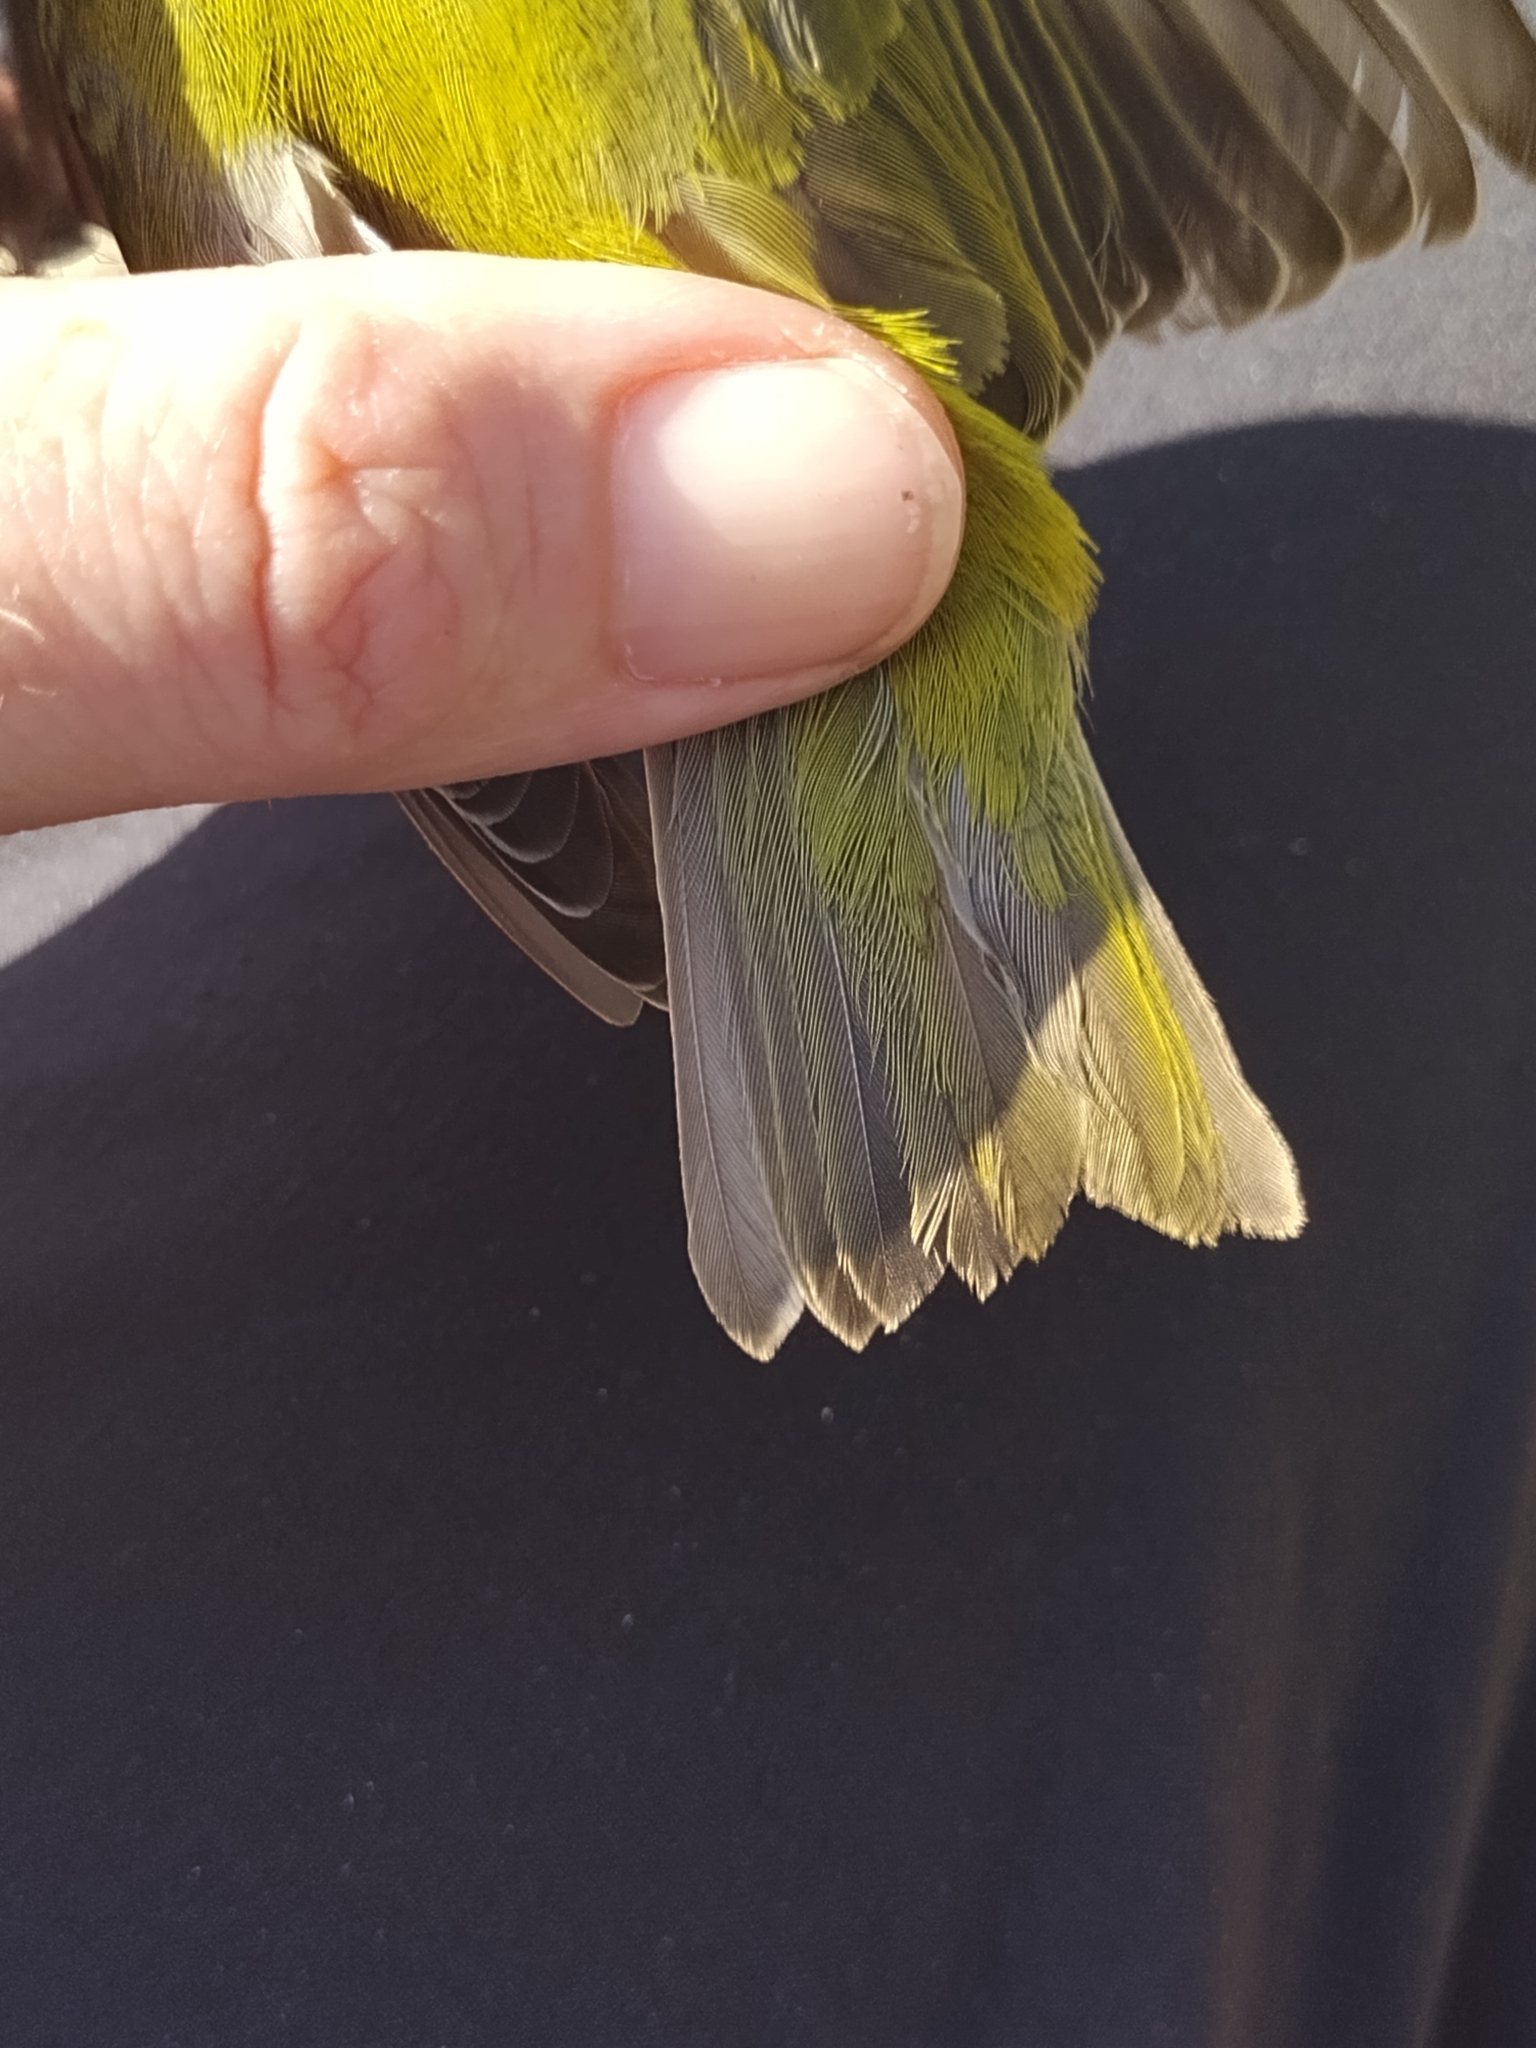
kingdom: Animalia
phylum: Chordata
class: Aves
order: Passeriformes
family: Parulidae
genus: Leiothlypis
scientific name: Leiothlypis peregrina
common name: Tennessee warbler
